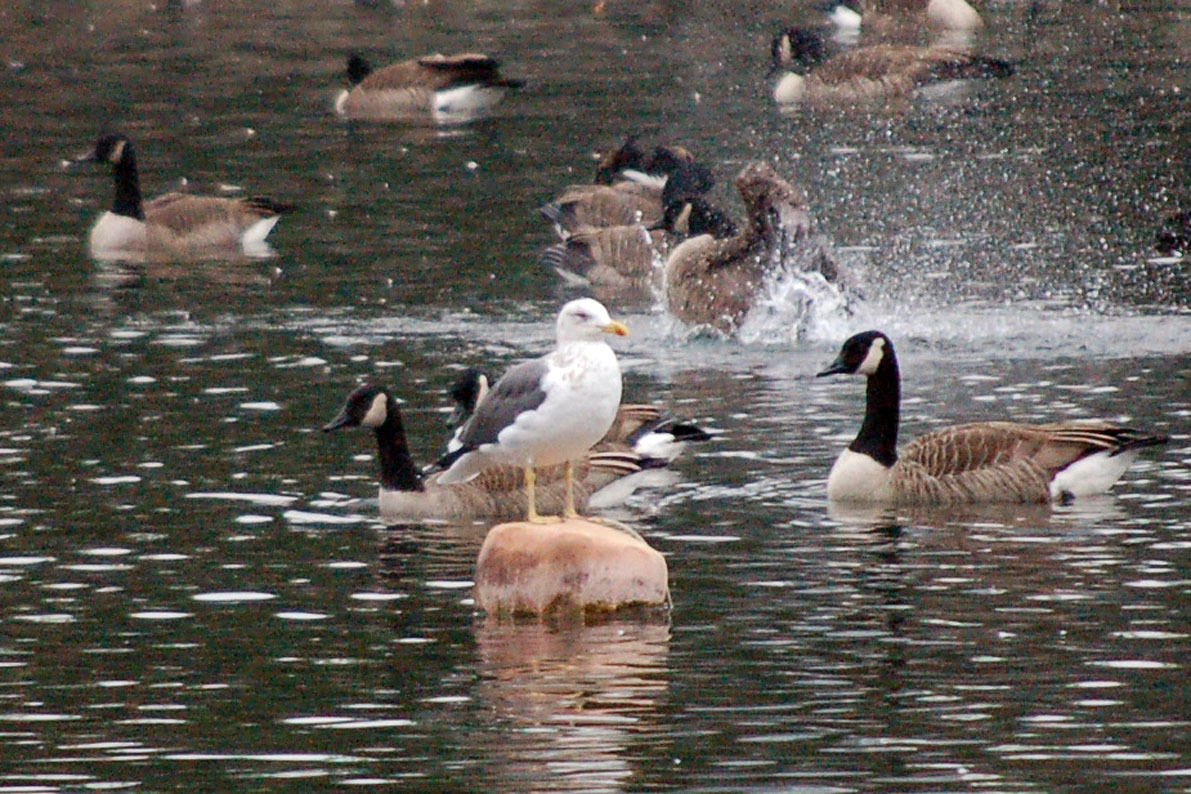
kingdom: Animalia
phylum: Chordata
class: Aves
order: Charadriiformes
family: Laridae
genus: Larus
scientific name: Larus fuscus
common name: Lesser black-backed gull
